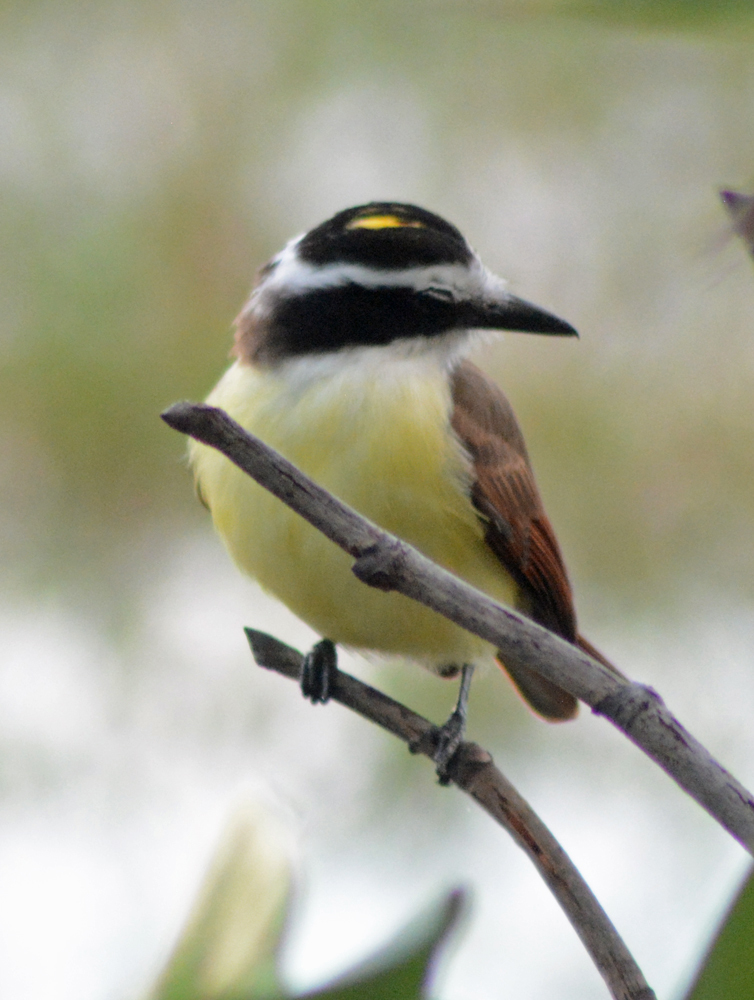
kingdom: Animalia
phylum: Chordata
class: Aves
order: Passeriformes
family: Tyrannidae
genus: Pitangus
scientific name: Pitangus sulphuratus
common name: Great kiskadee
